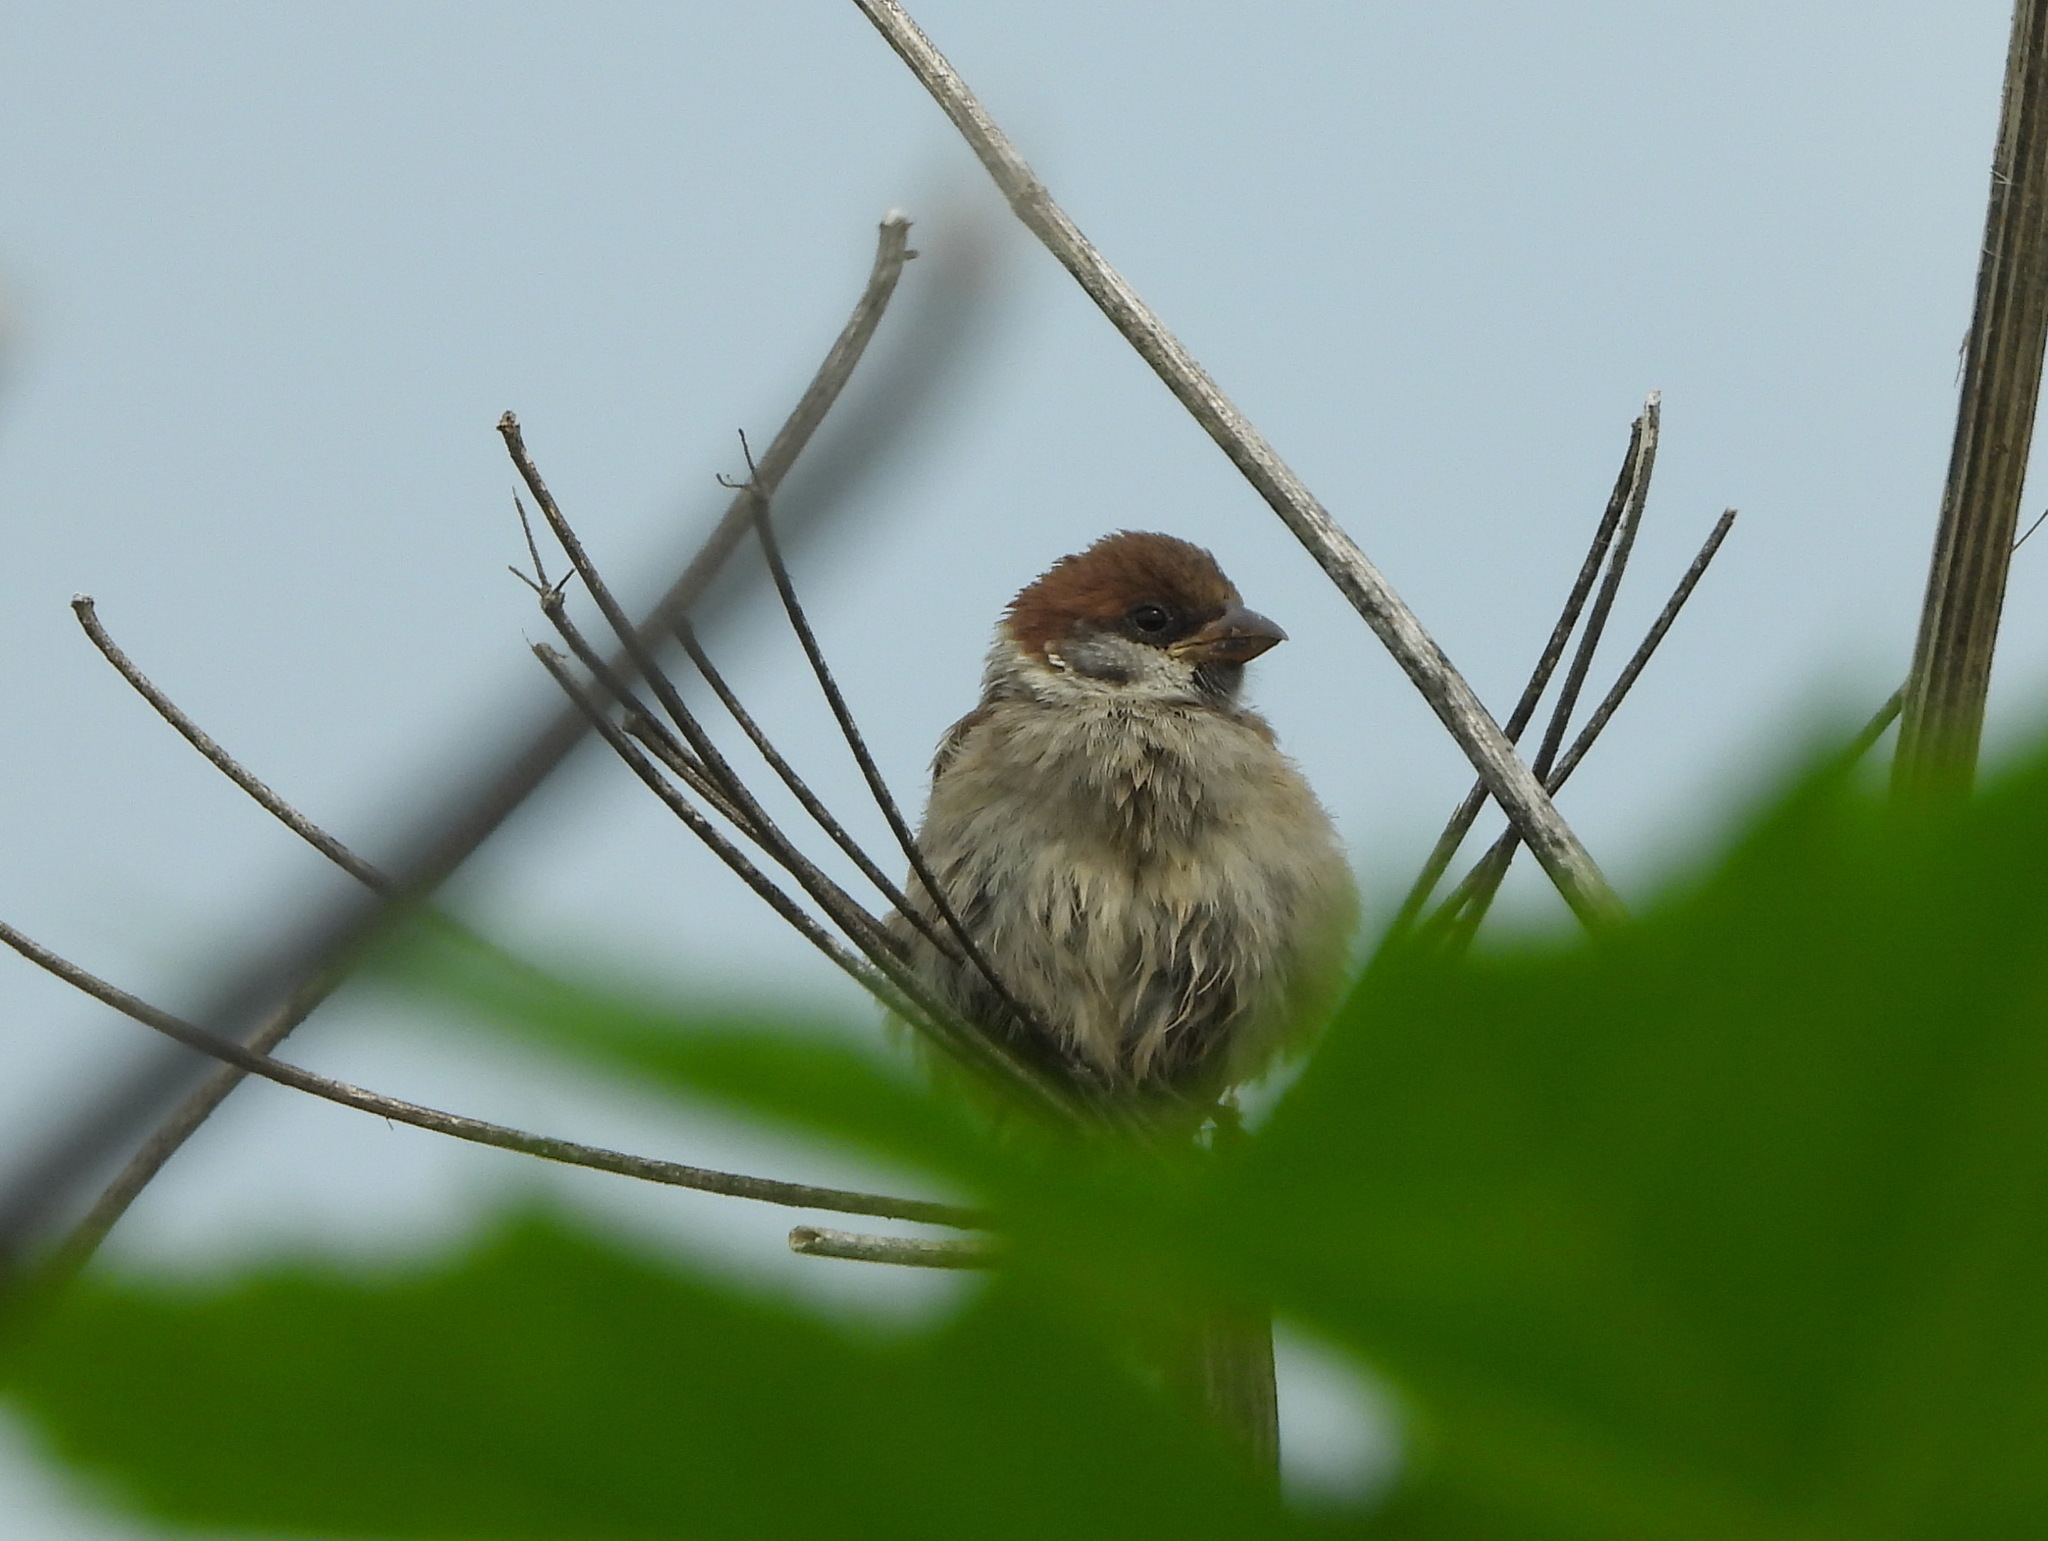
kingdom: Animalia
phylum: Chordata
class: Aves
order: Passeriformes
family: Passeridae
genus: Passer
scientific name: Passer montanus
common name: Eurasian tree sparrow
